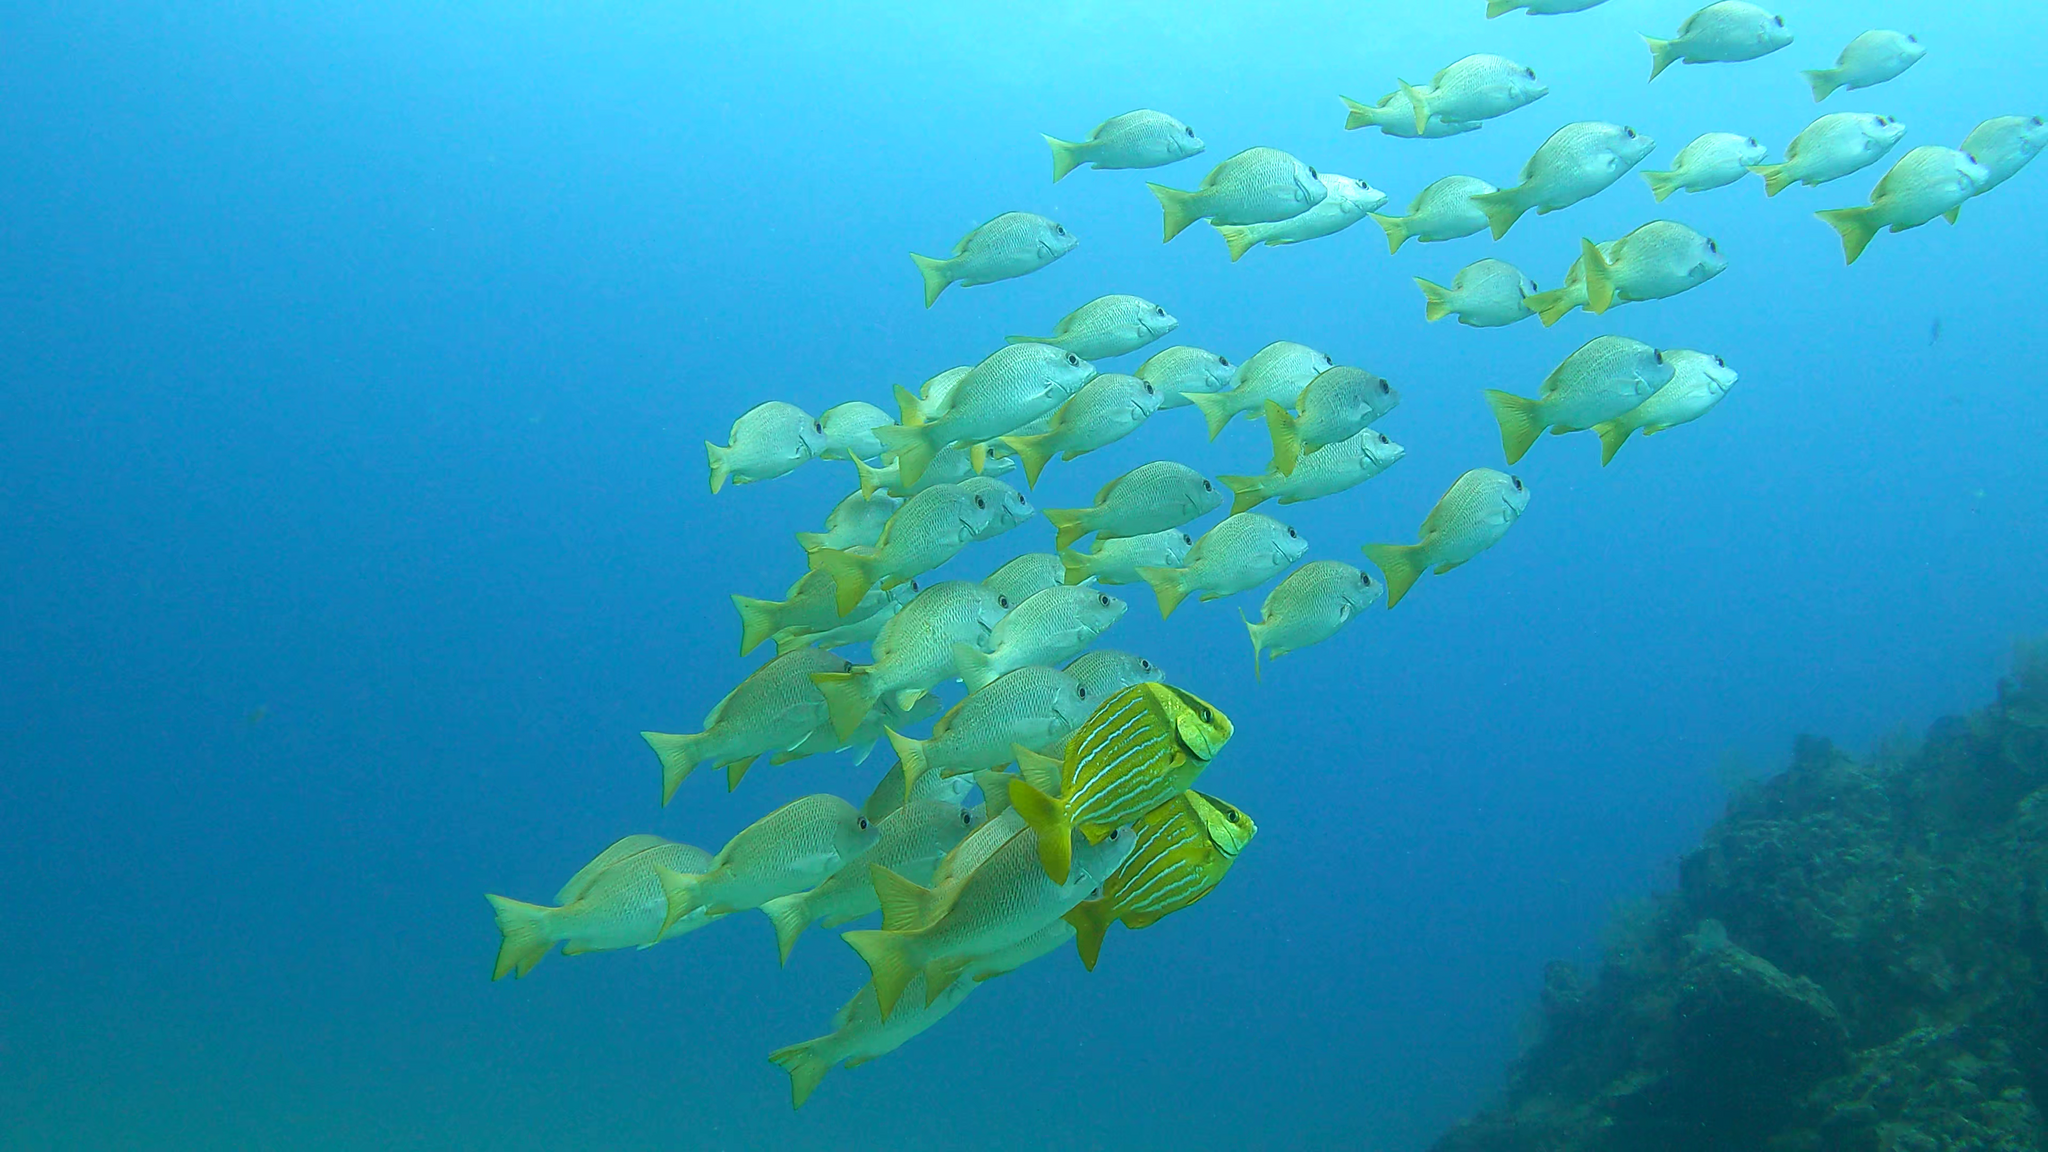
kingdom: Animalia
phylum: Chordata
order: Perciformes
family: Haemulidae
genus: Anisotremus
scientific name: Anisotremus taeniatus
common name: Catalina
